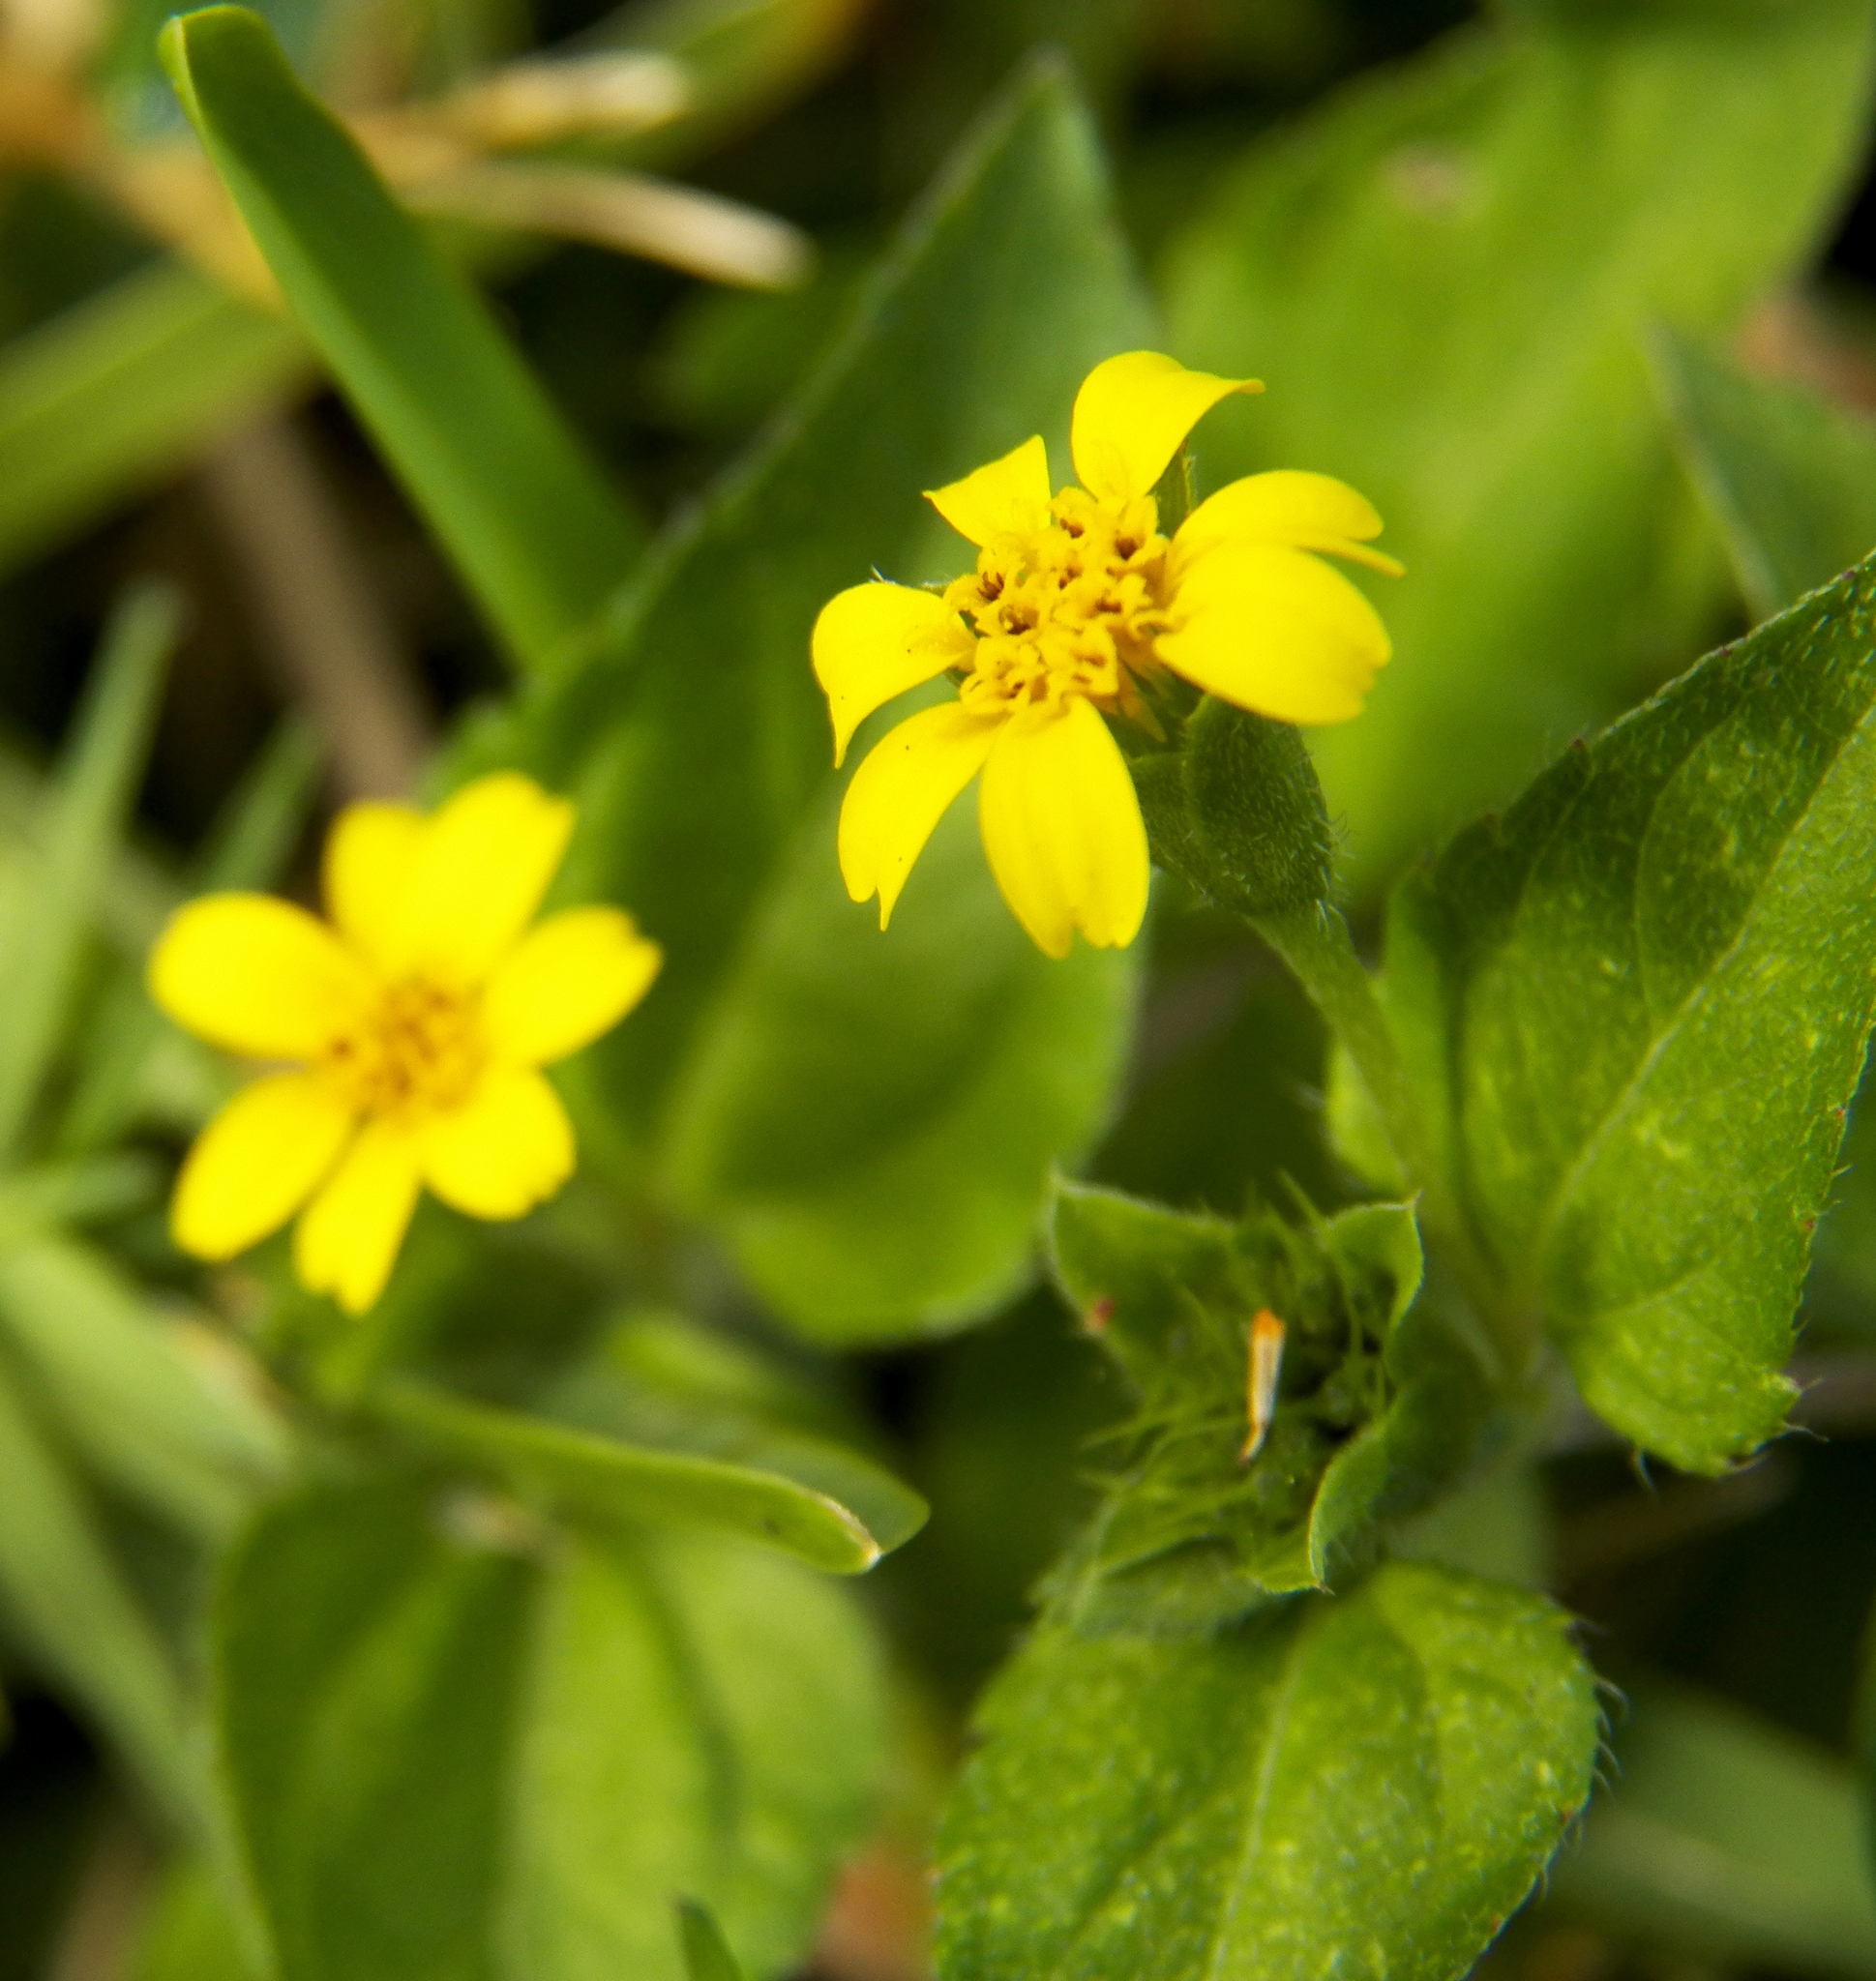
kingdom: Plantae
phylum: Tracheophyta
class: Magnoliopsida
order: Asterales
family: Asteraceae
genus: Calyptocarpus
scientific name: Calyptocarpus vialis
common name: Straggler daisy
